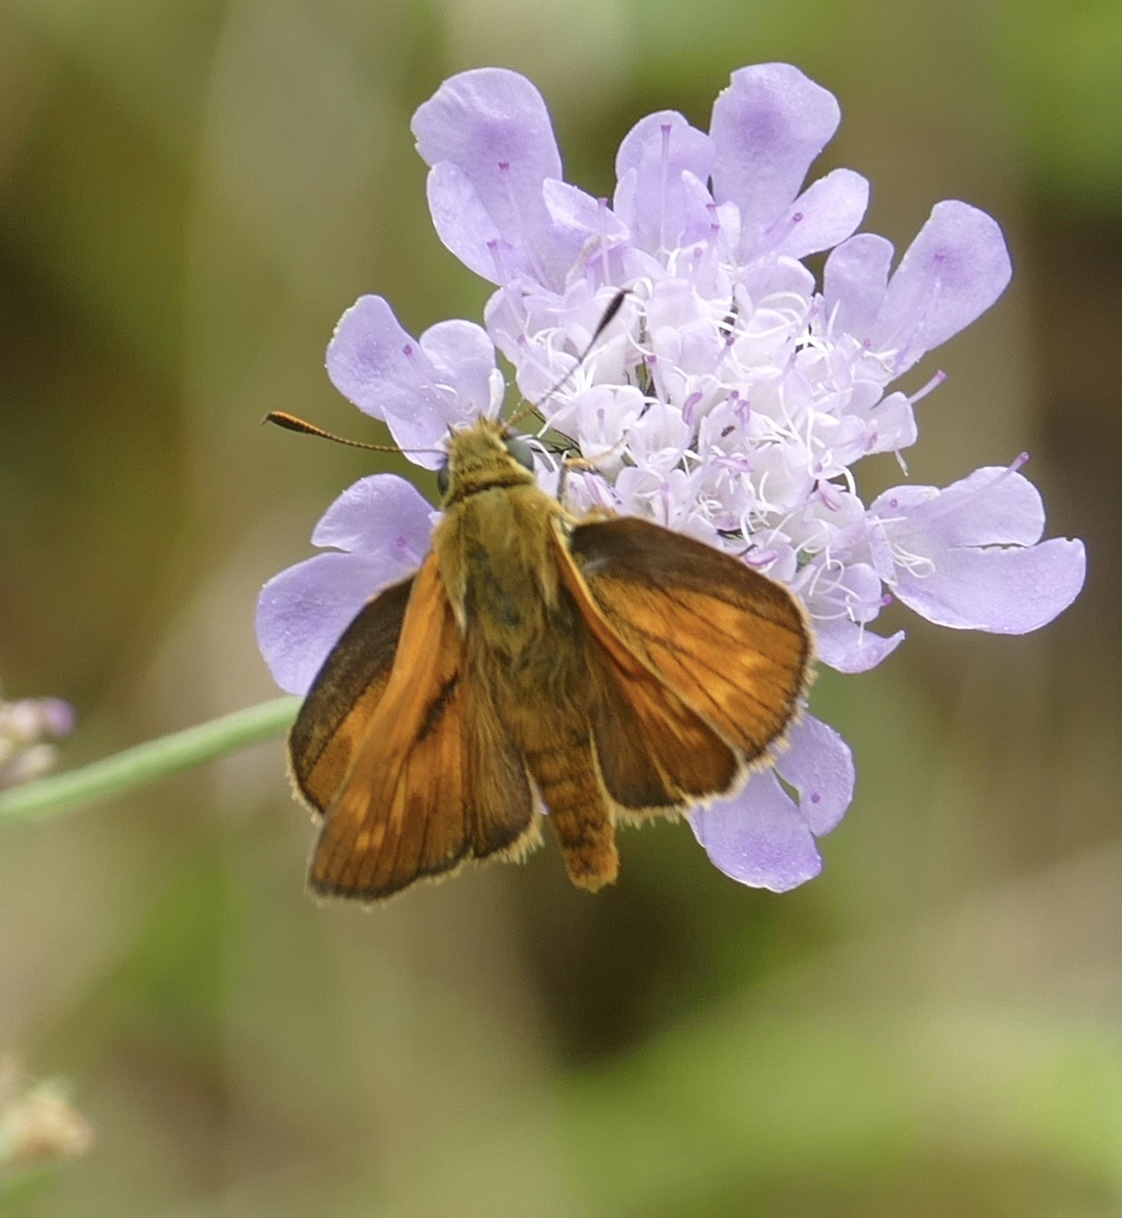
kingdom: Animalia
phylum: Arthropoda
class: Insecta
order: Lepidoptera
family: Hesperiidae
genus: Ochlodes
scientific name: Ochlodes venata
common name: Large skipper
